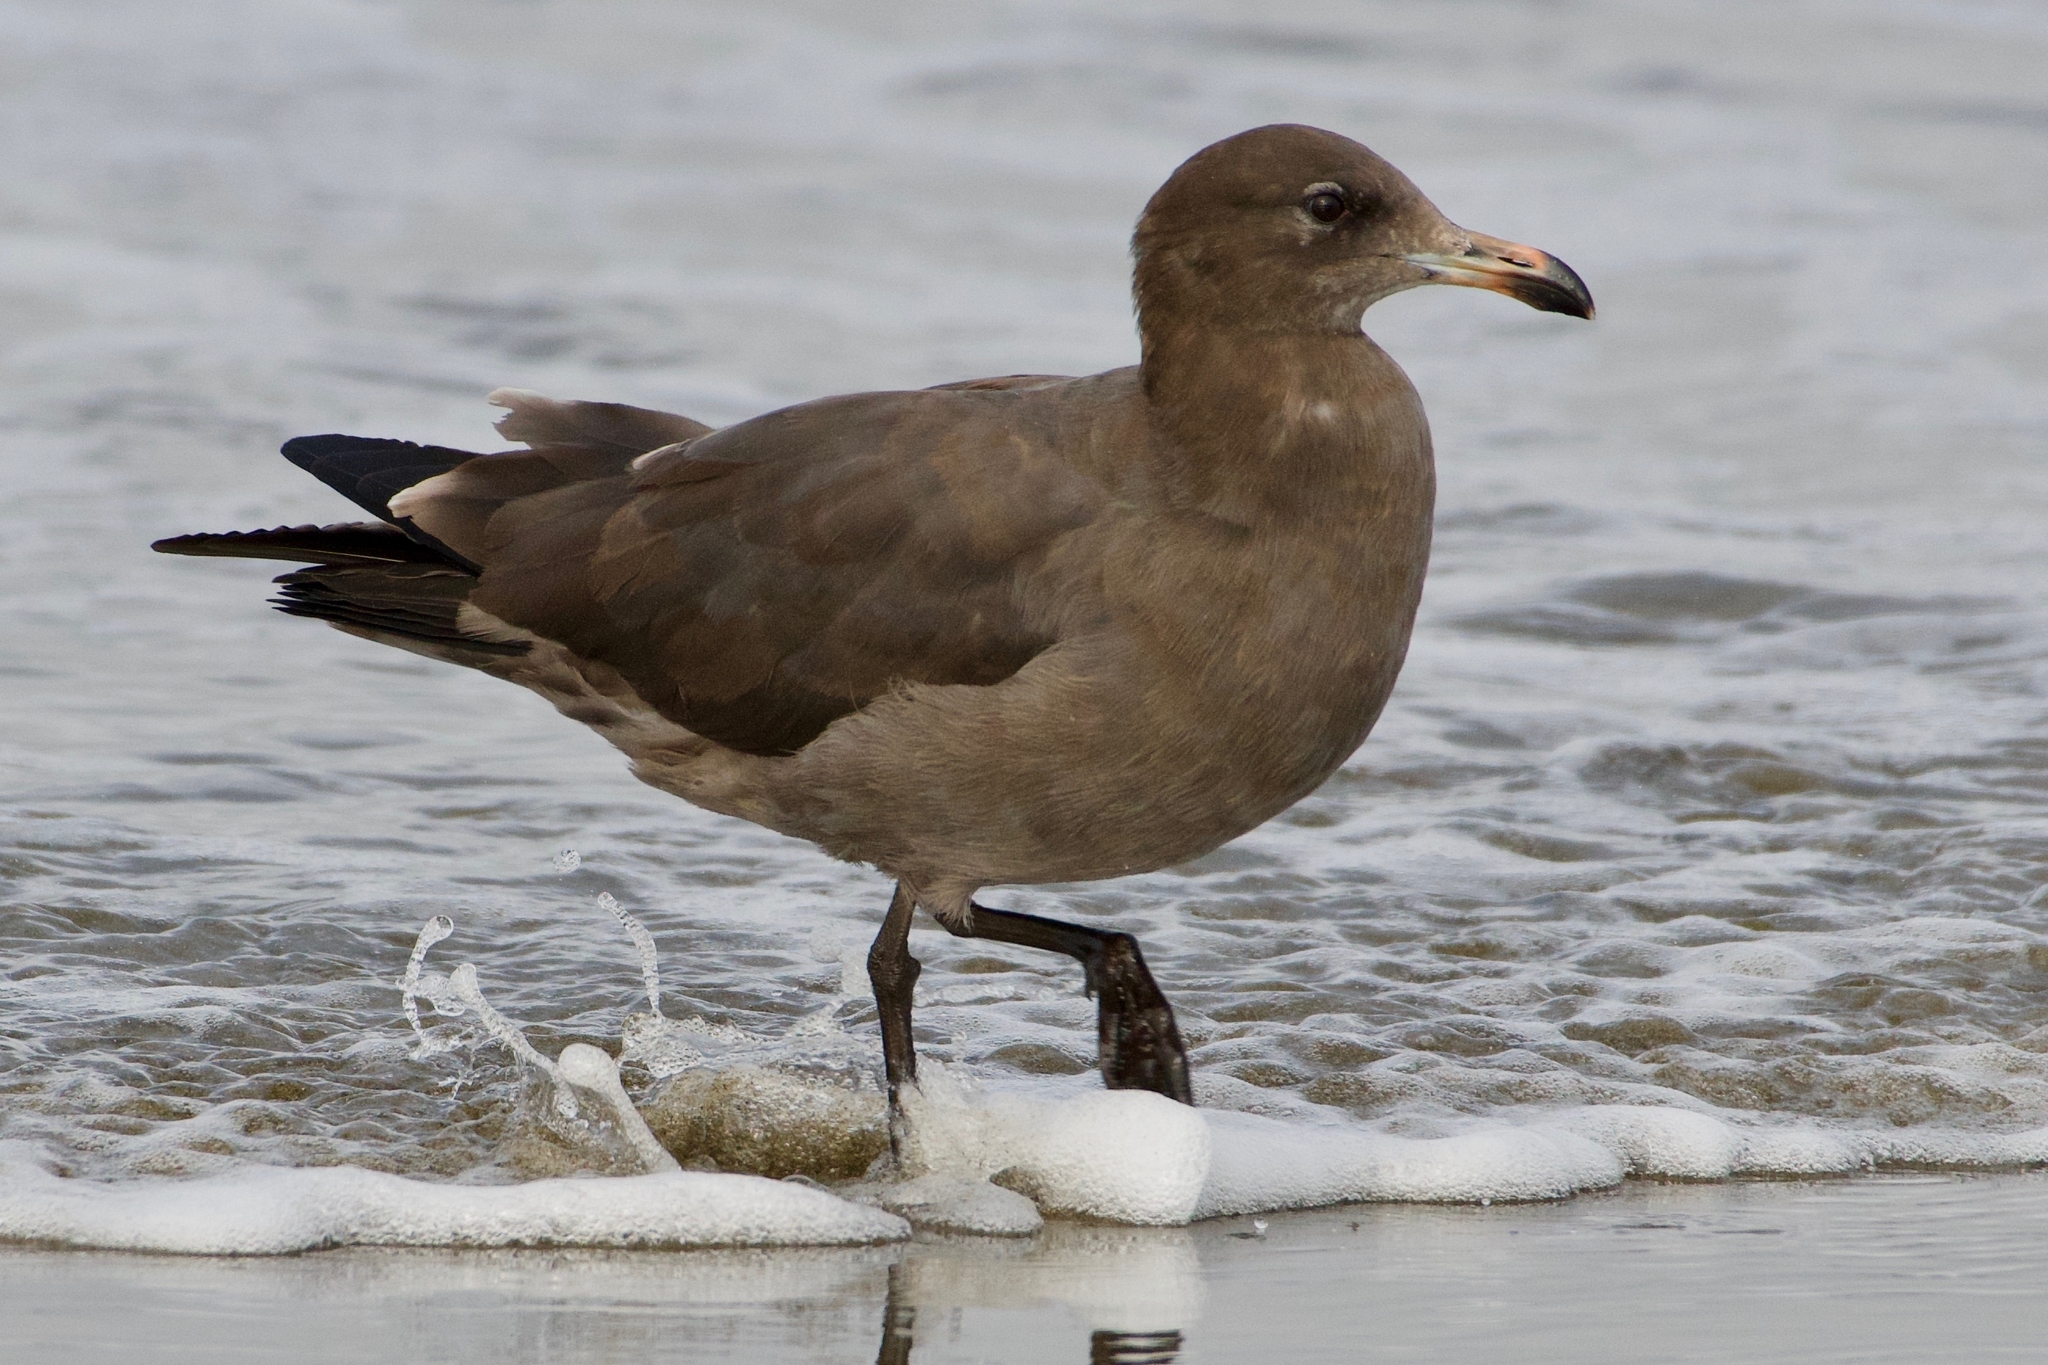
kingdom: Animalia
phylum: Chordata
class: Aves
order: Charadriiformes
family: Laridae
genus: Larus
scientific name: Larus heermanni
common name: Heermann's gull
